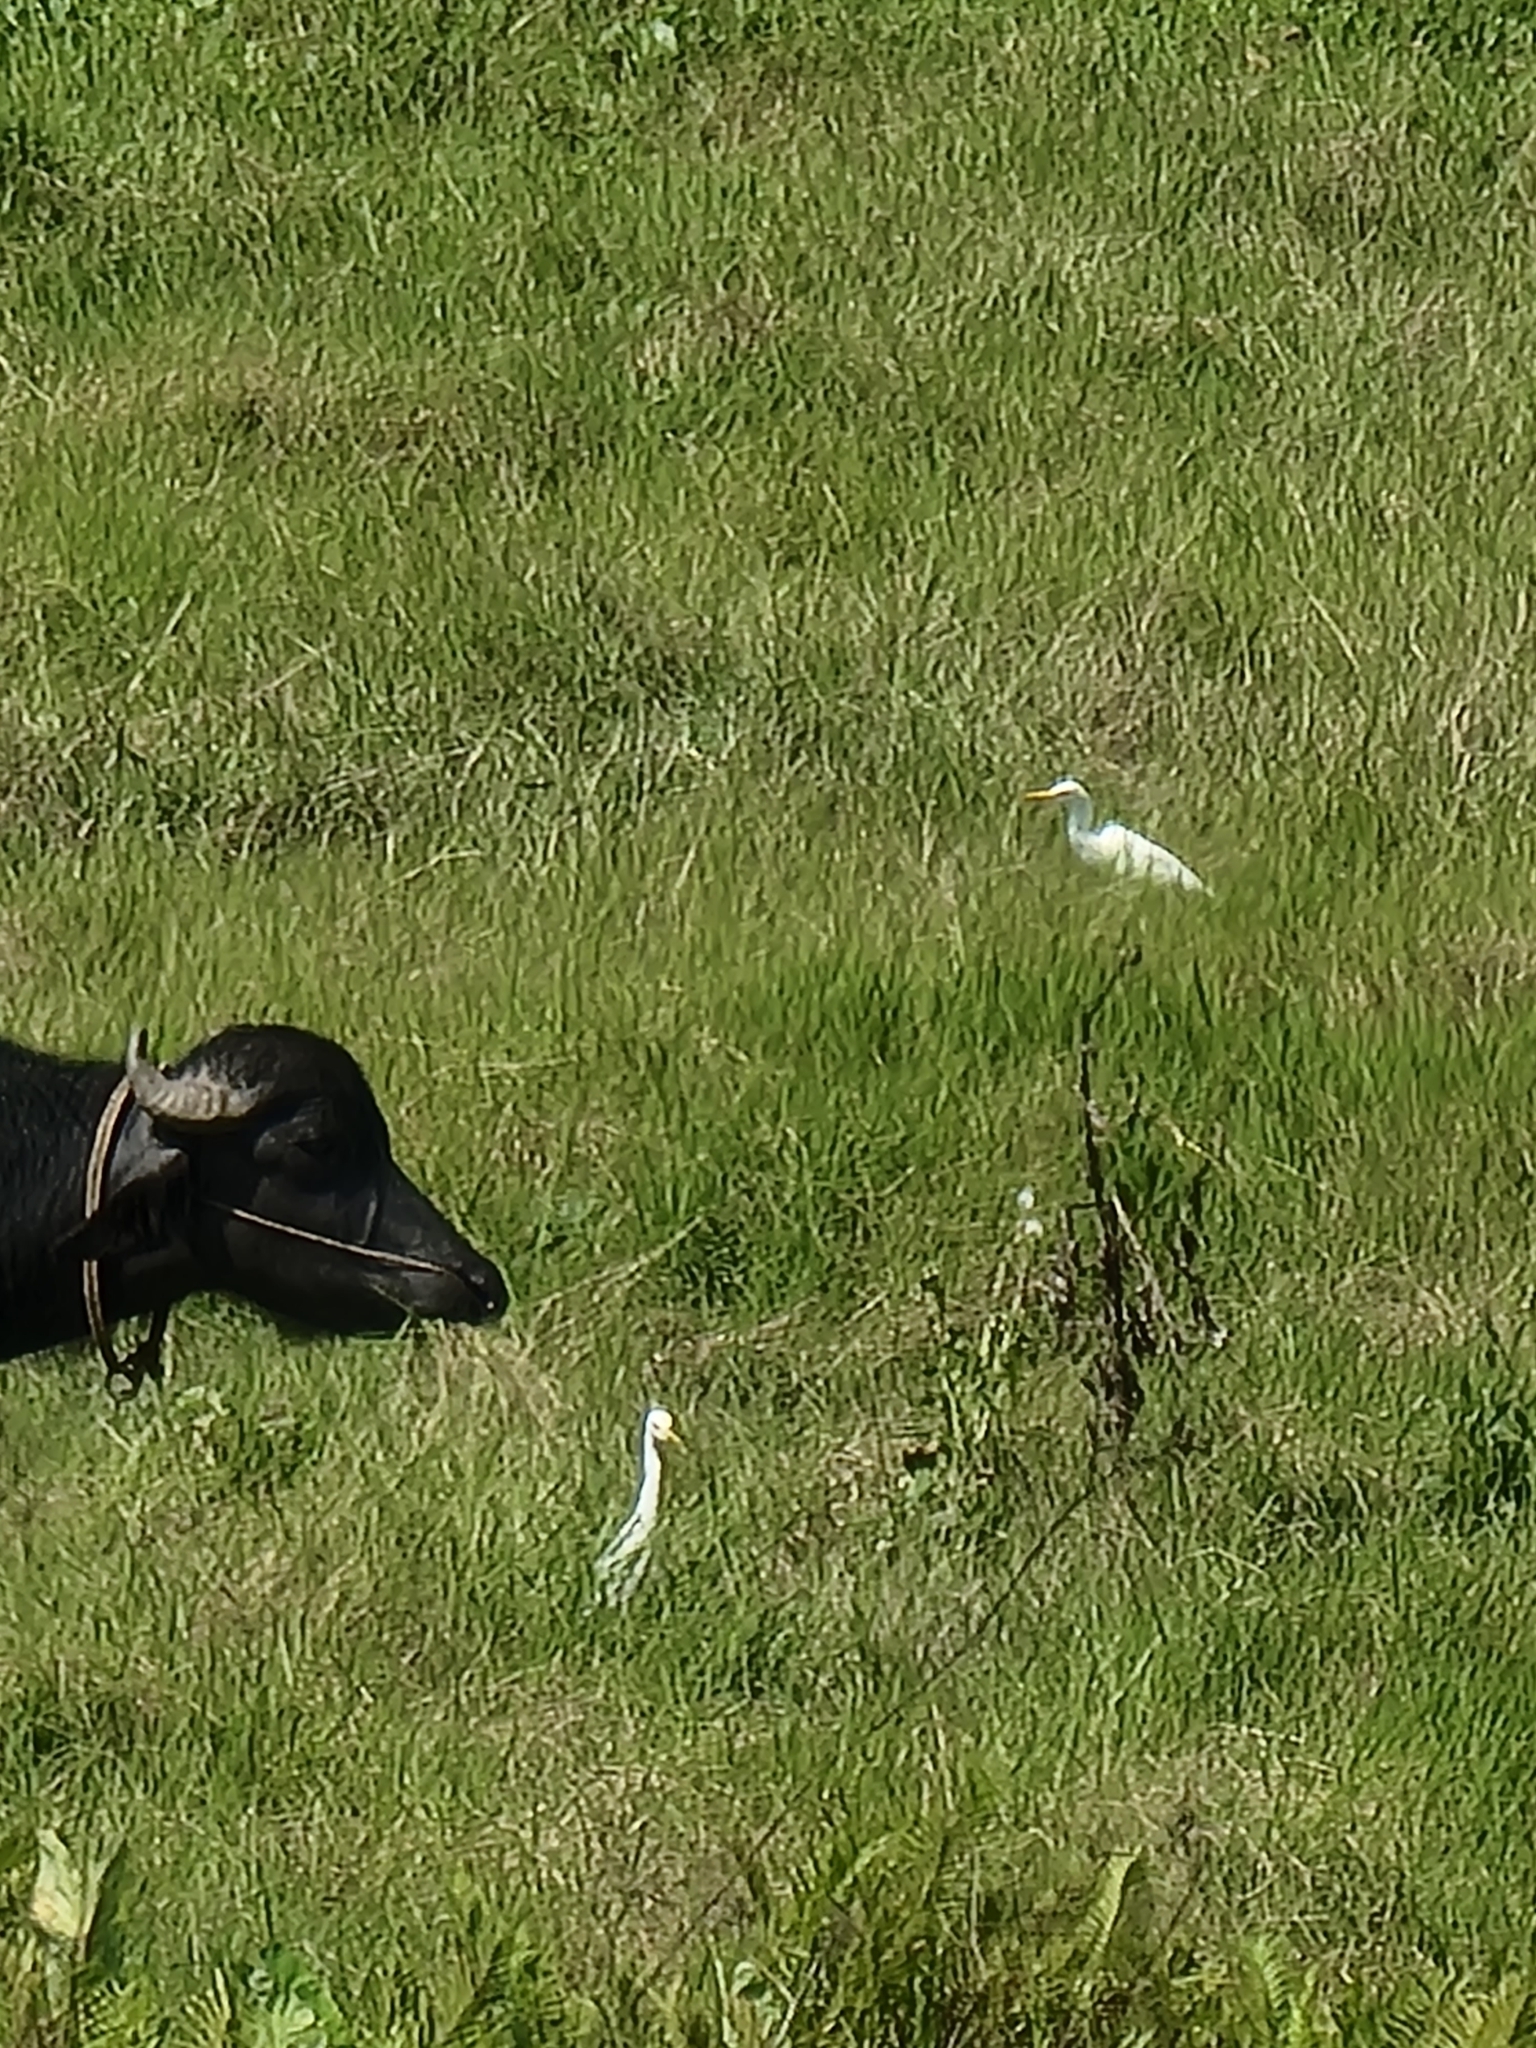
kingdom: Animalia
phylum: Chordata
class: Aves
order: Pelecaniformes
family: Ardeidae
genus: Bubulcus
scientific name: Bubulcus coromandus
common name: Eastern cattle egret
